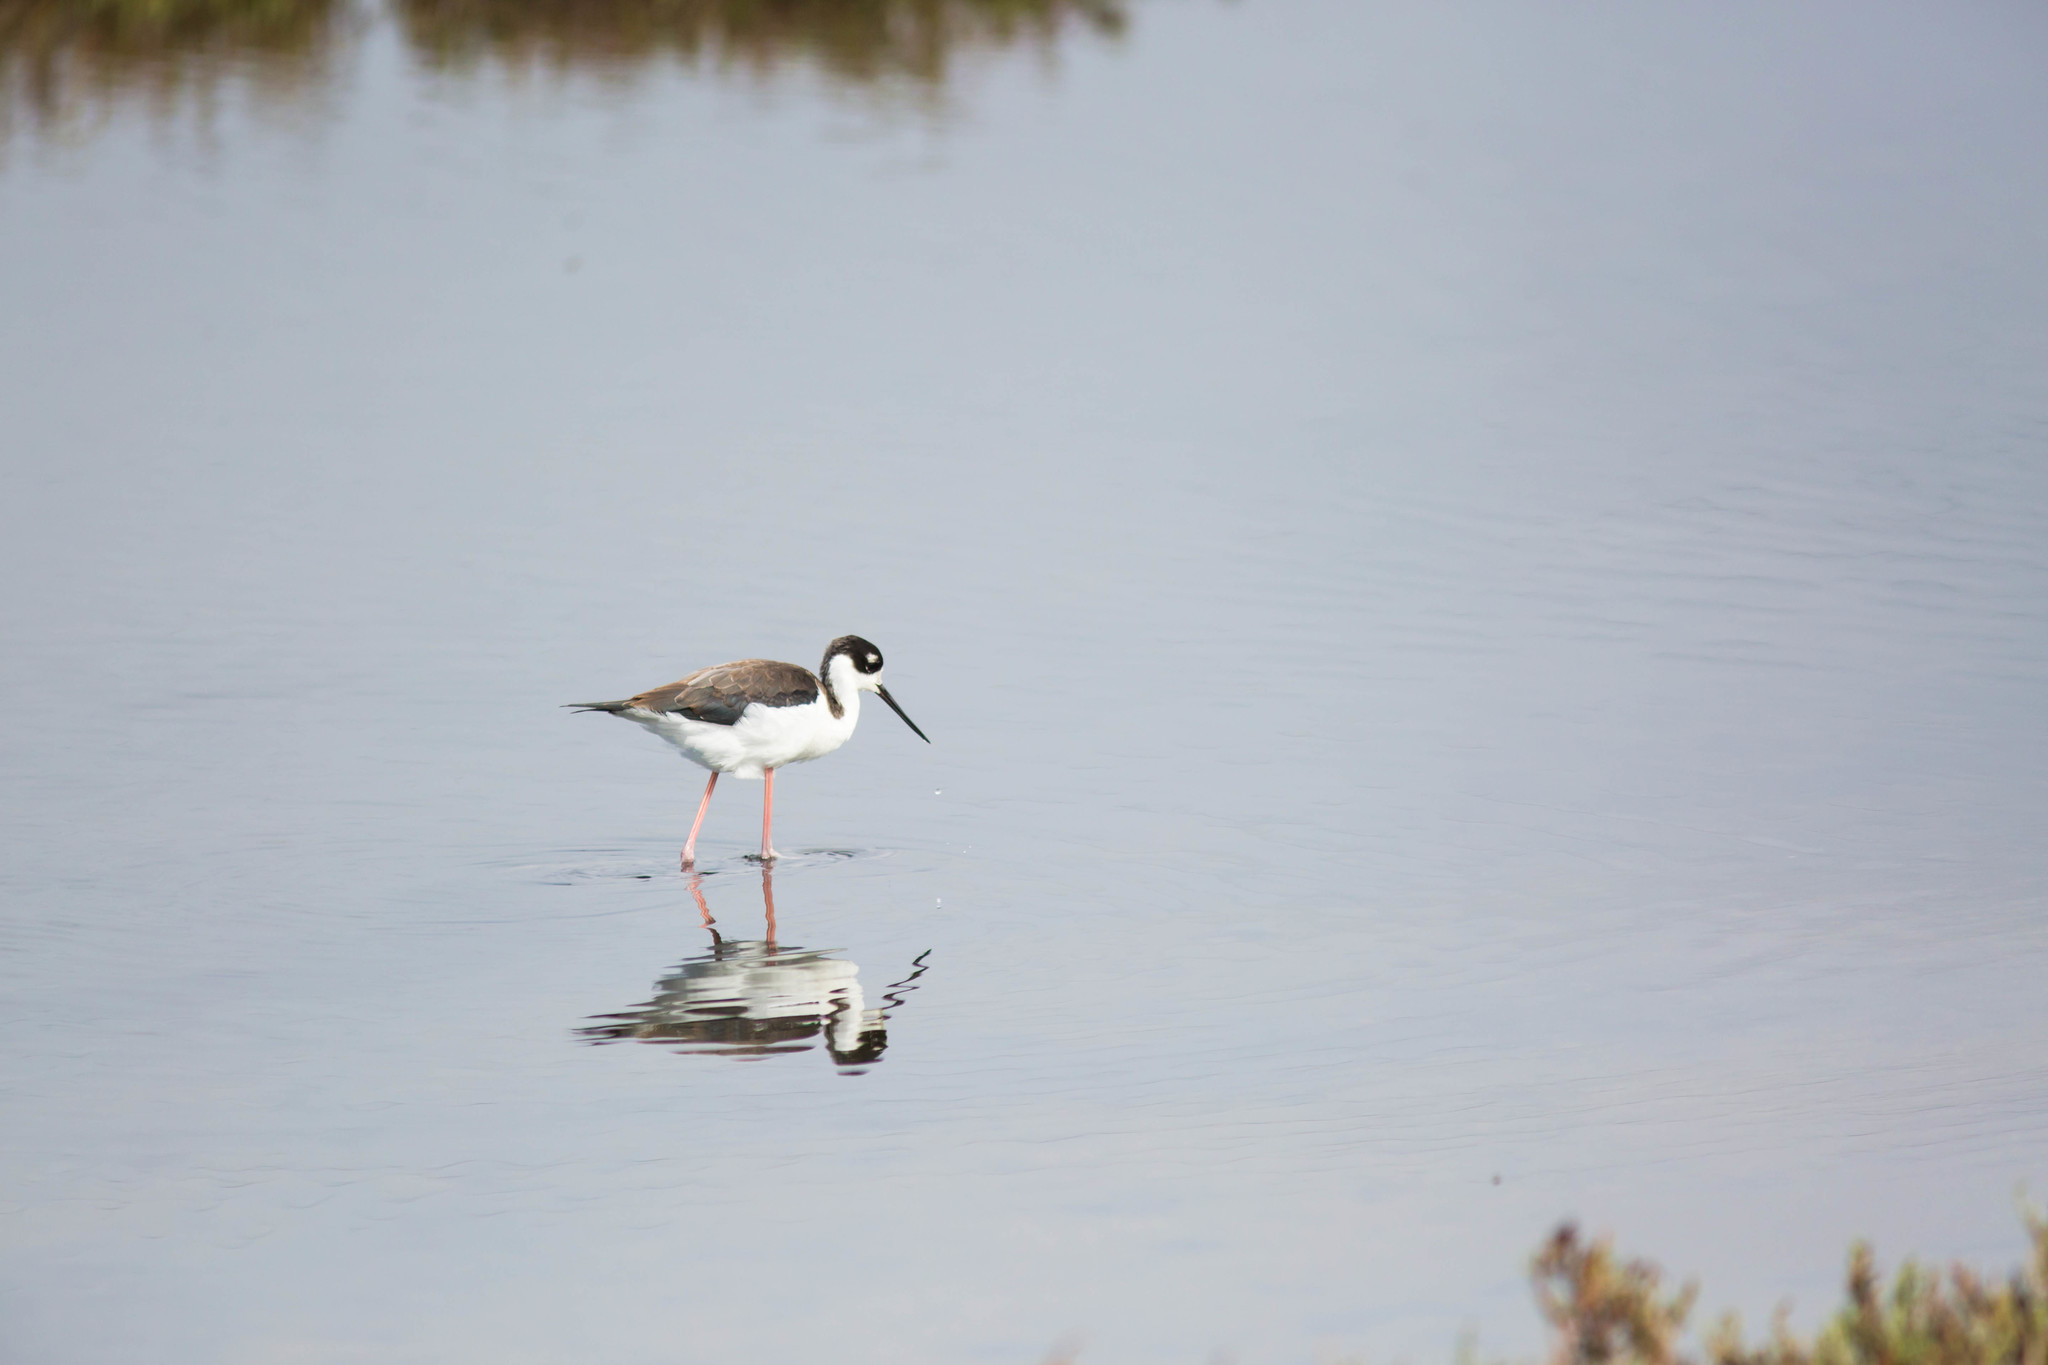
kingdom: Animalia
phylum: Chordata
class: Aves
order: Charadriiformes
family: Recurvirostridae
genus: Himantopus
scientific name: Himantopus mexicanus
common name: Black-necked stilt
